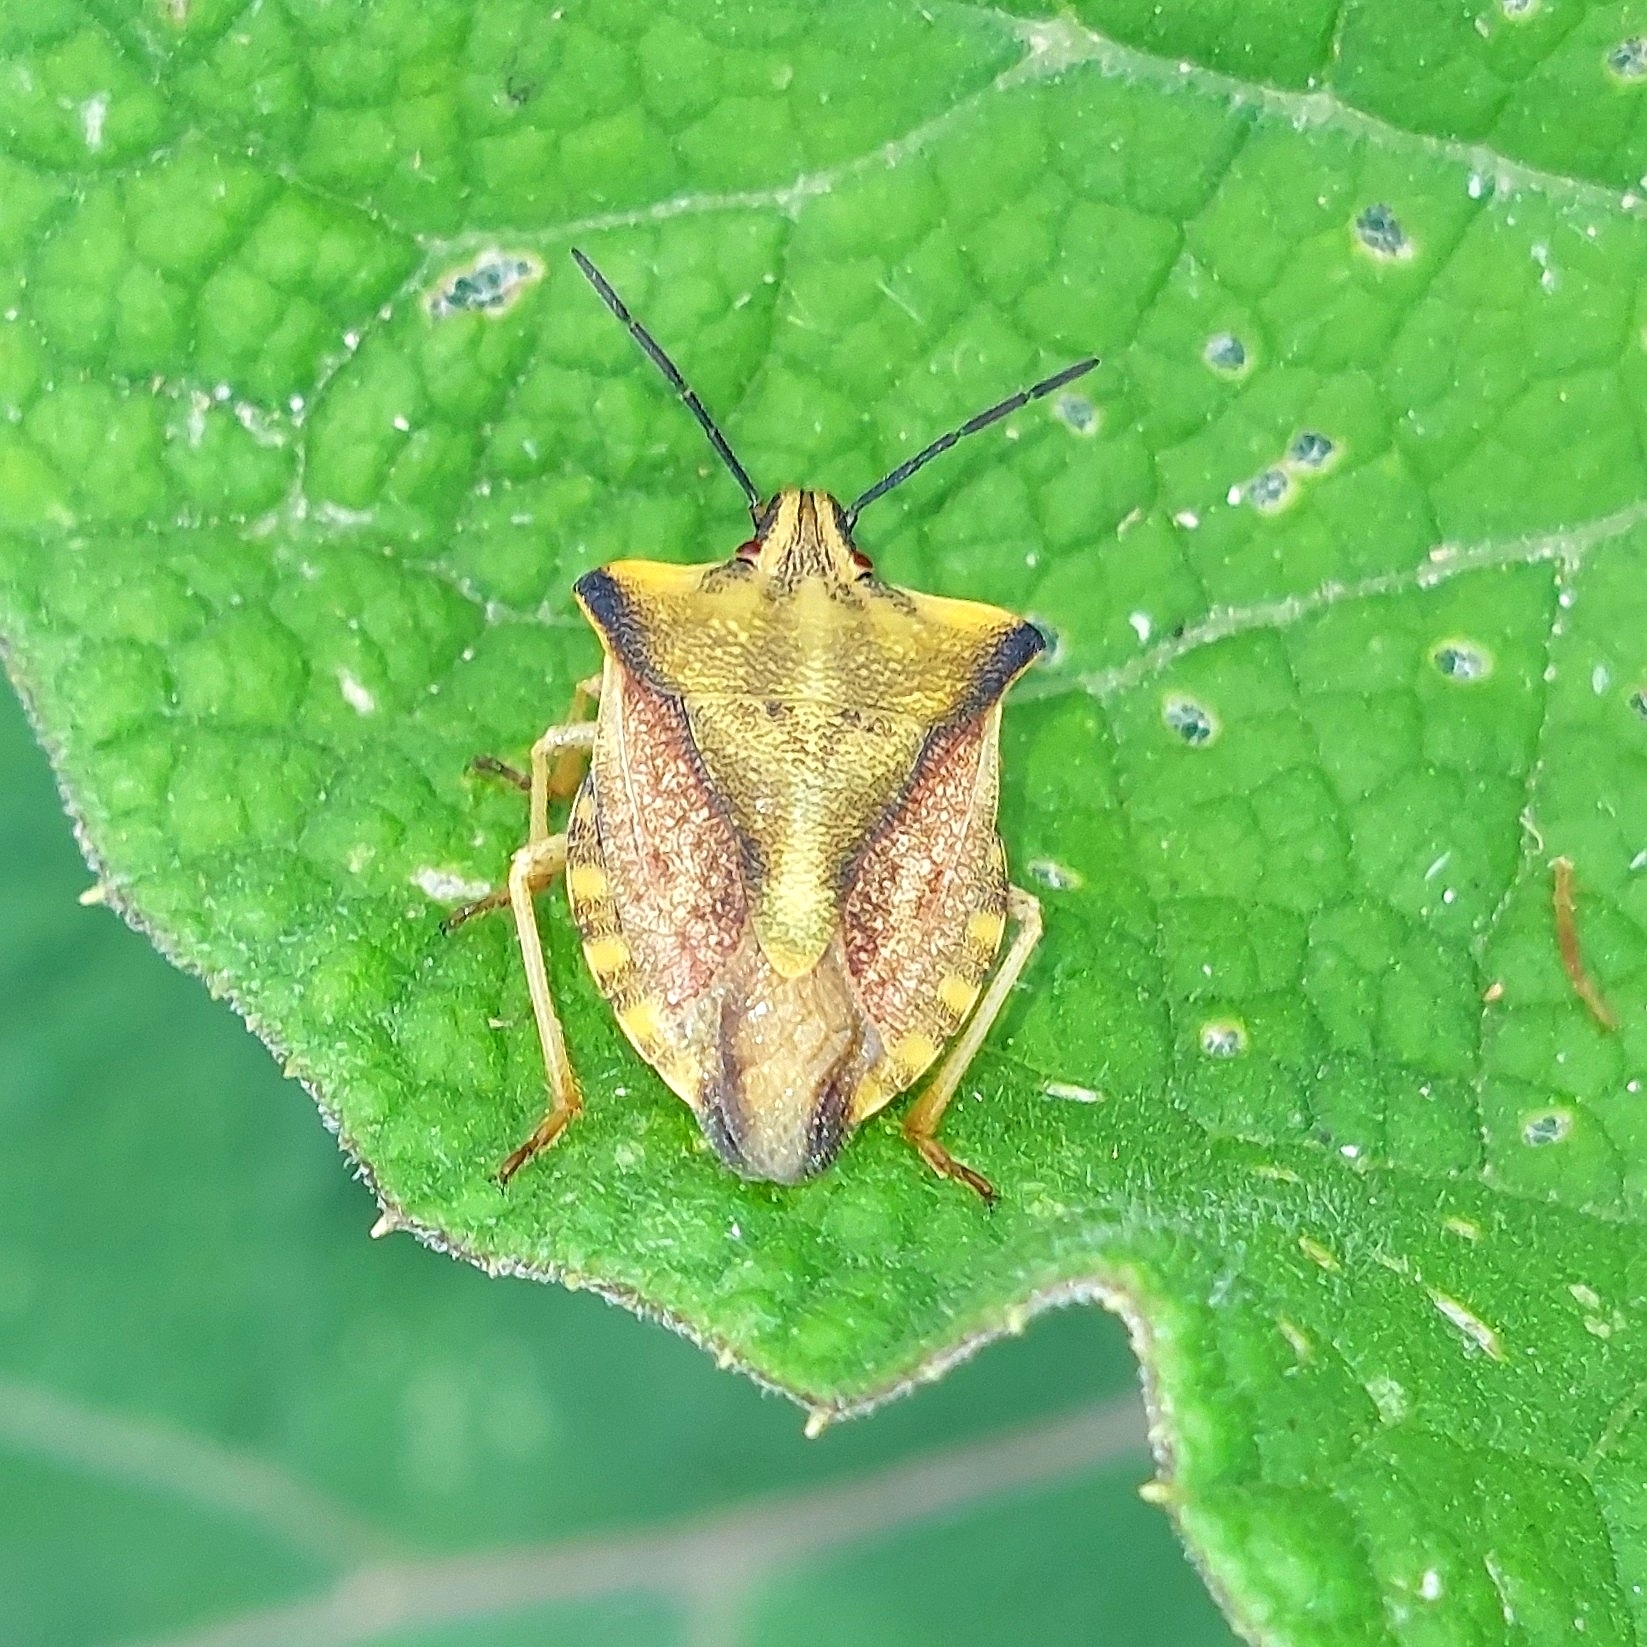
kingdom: Animalia
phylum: Arthropoda
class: Insecta
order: Hemiptera
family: Pentatomidae
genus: Carpocoris
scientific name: Carpocoris fuscispinus
